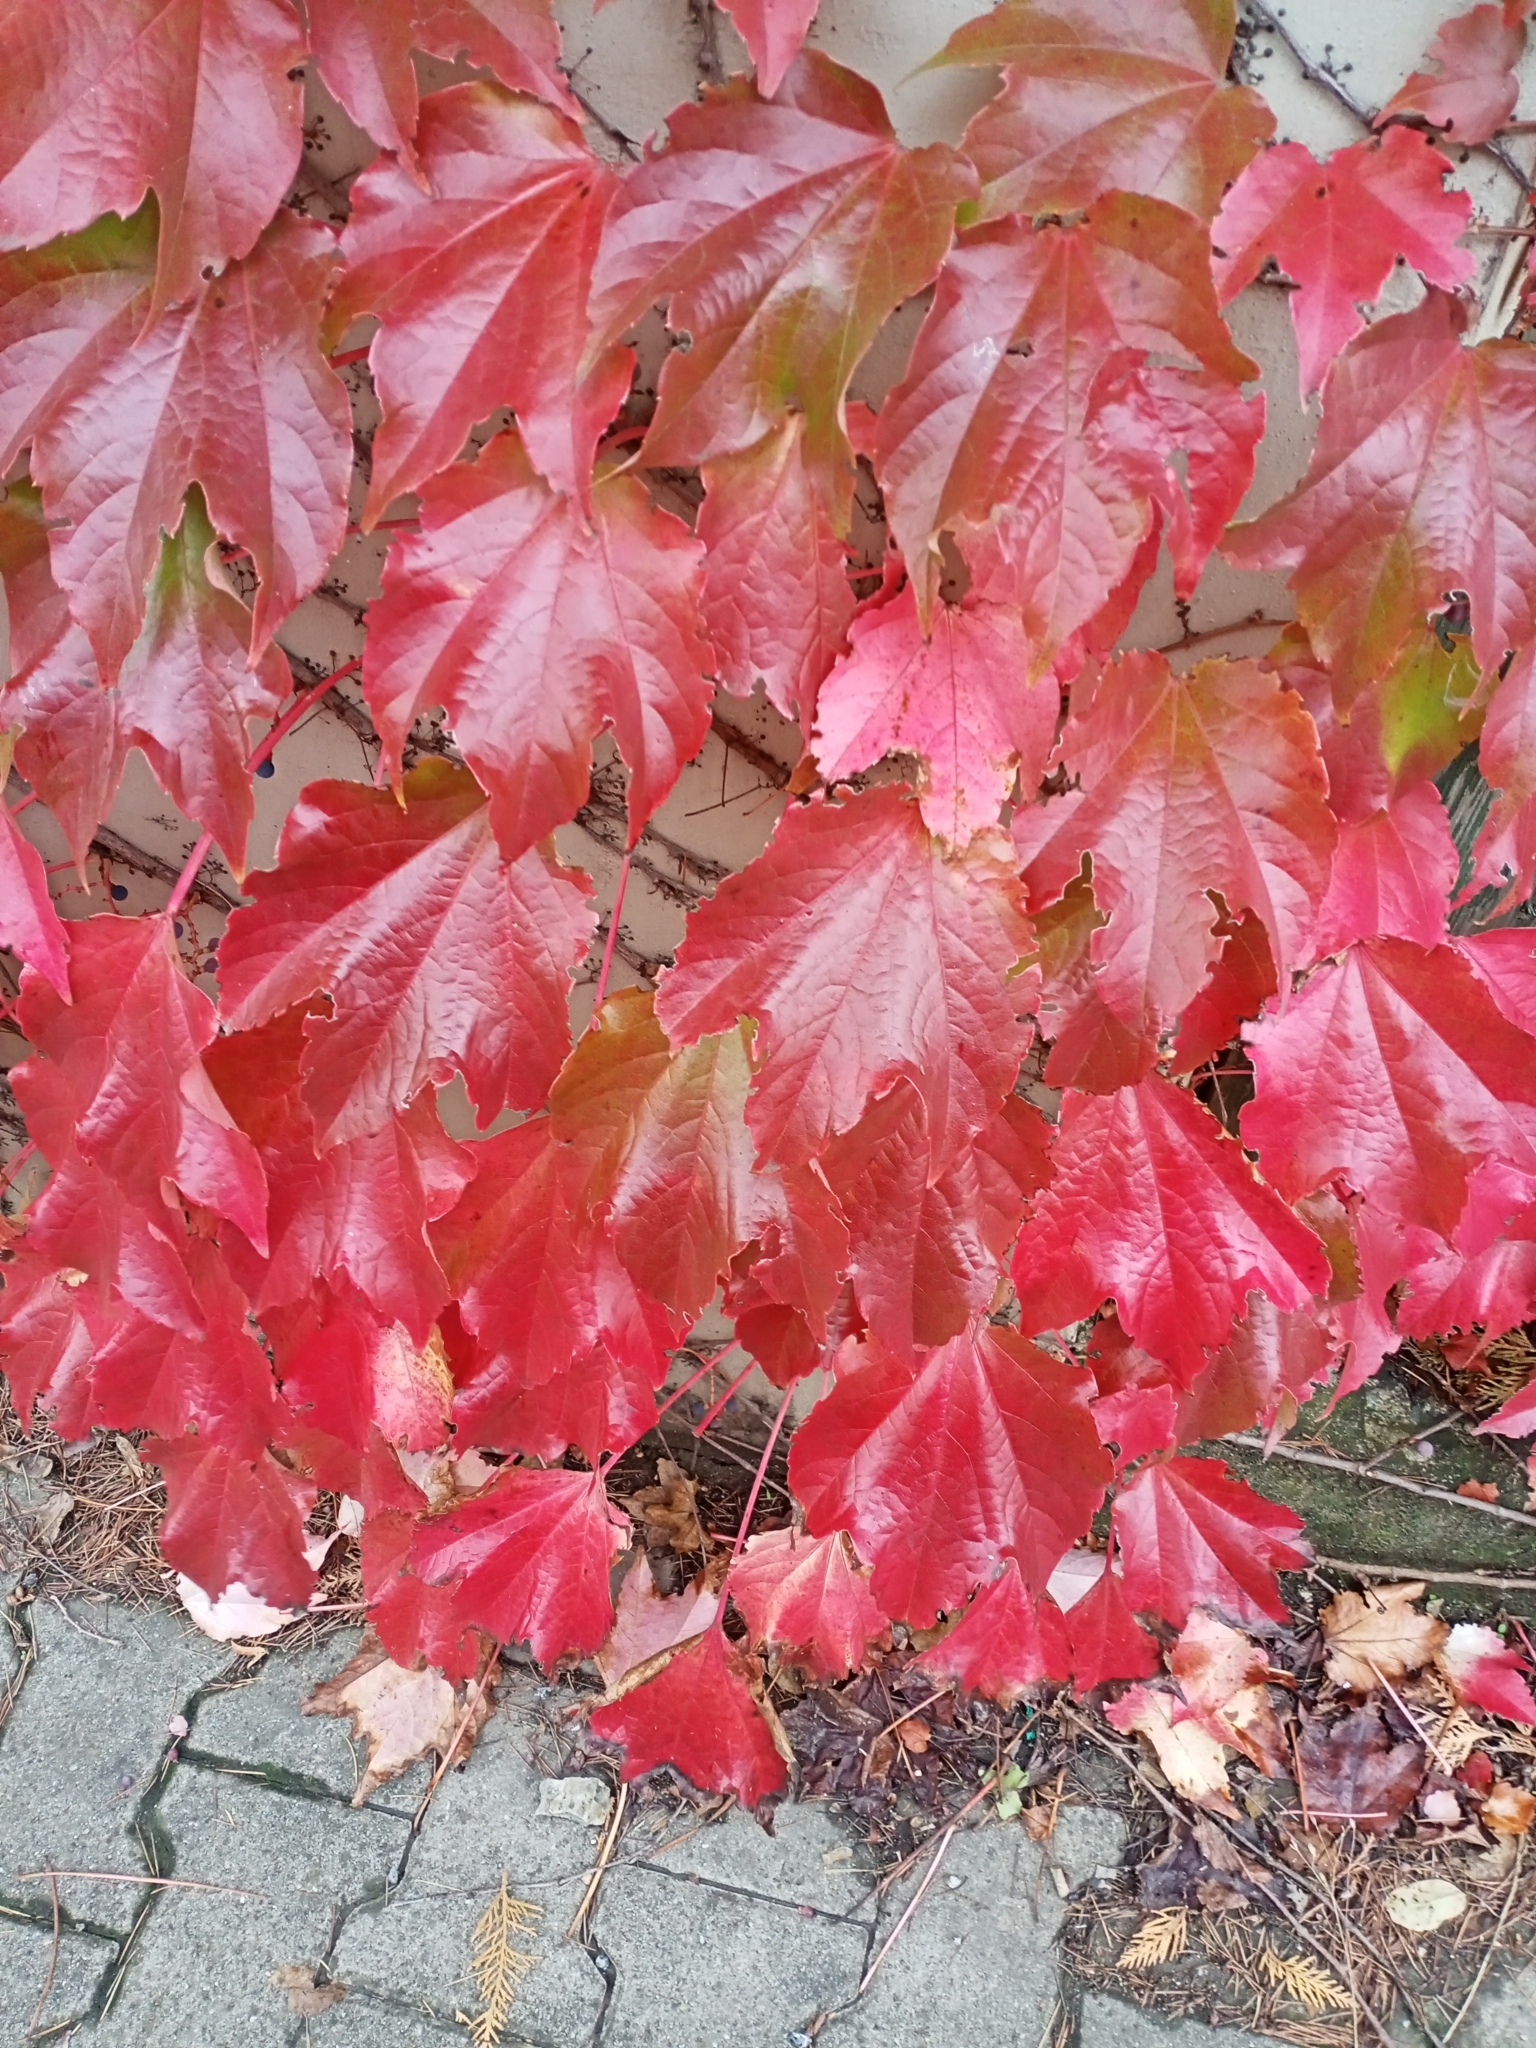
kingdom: Plantae
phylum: Tracheophyta
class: Magnoliopsida
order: Vitales
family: Vitaceae
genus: Parthenocissus
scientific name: Parthenocissus tricuspidata
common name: Boston ivy
